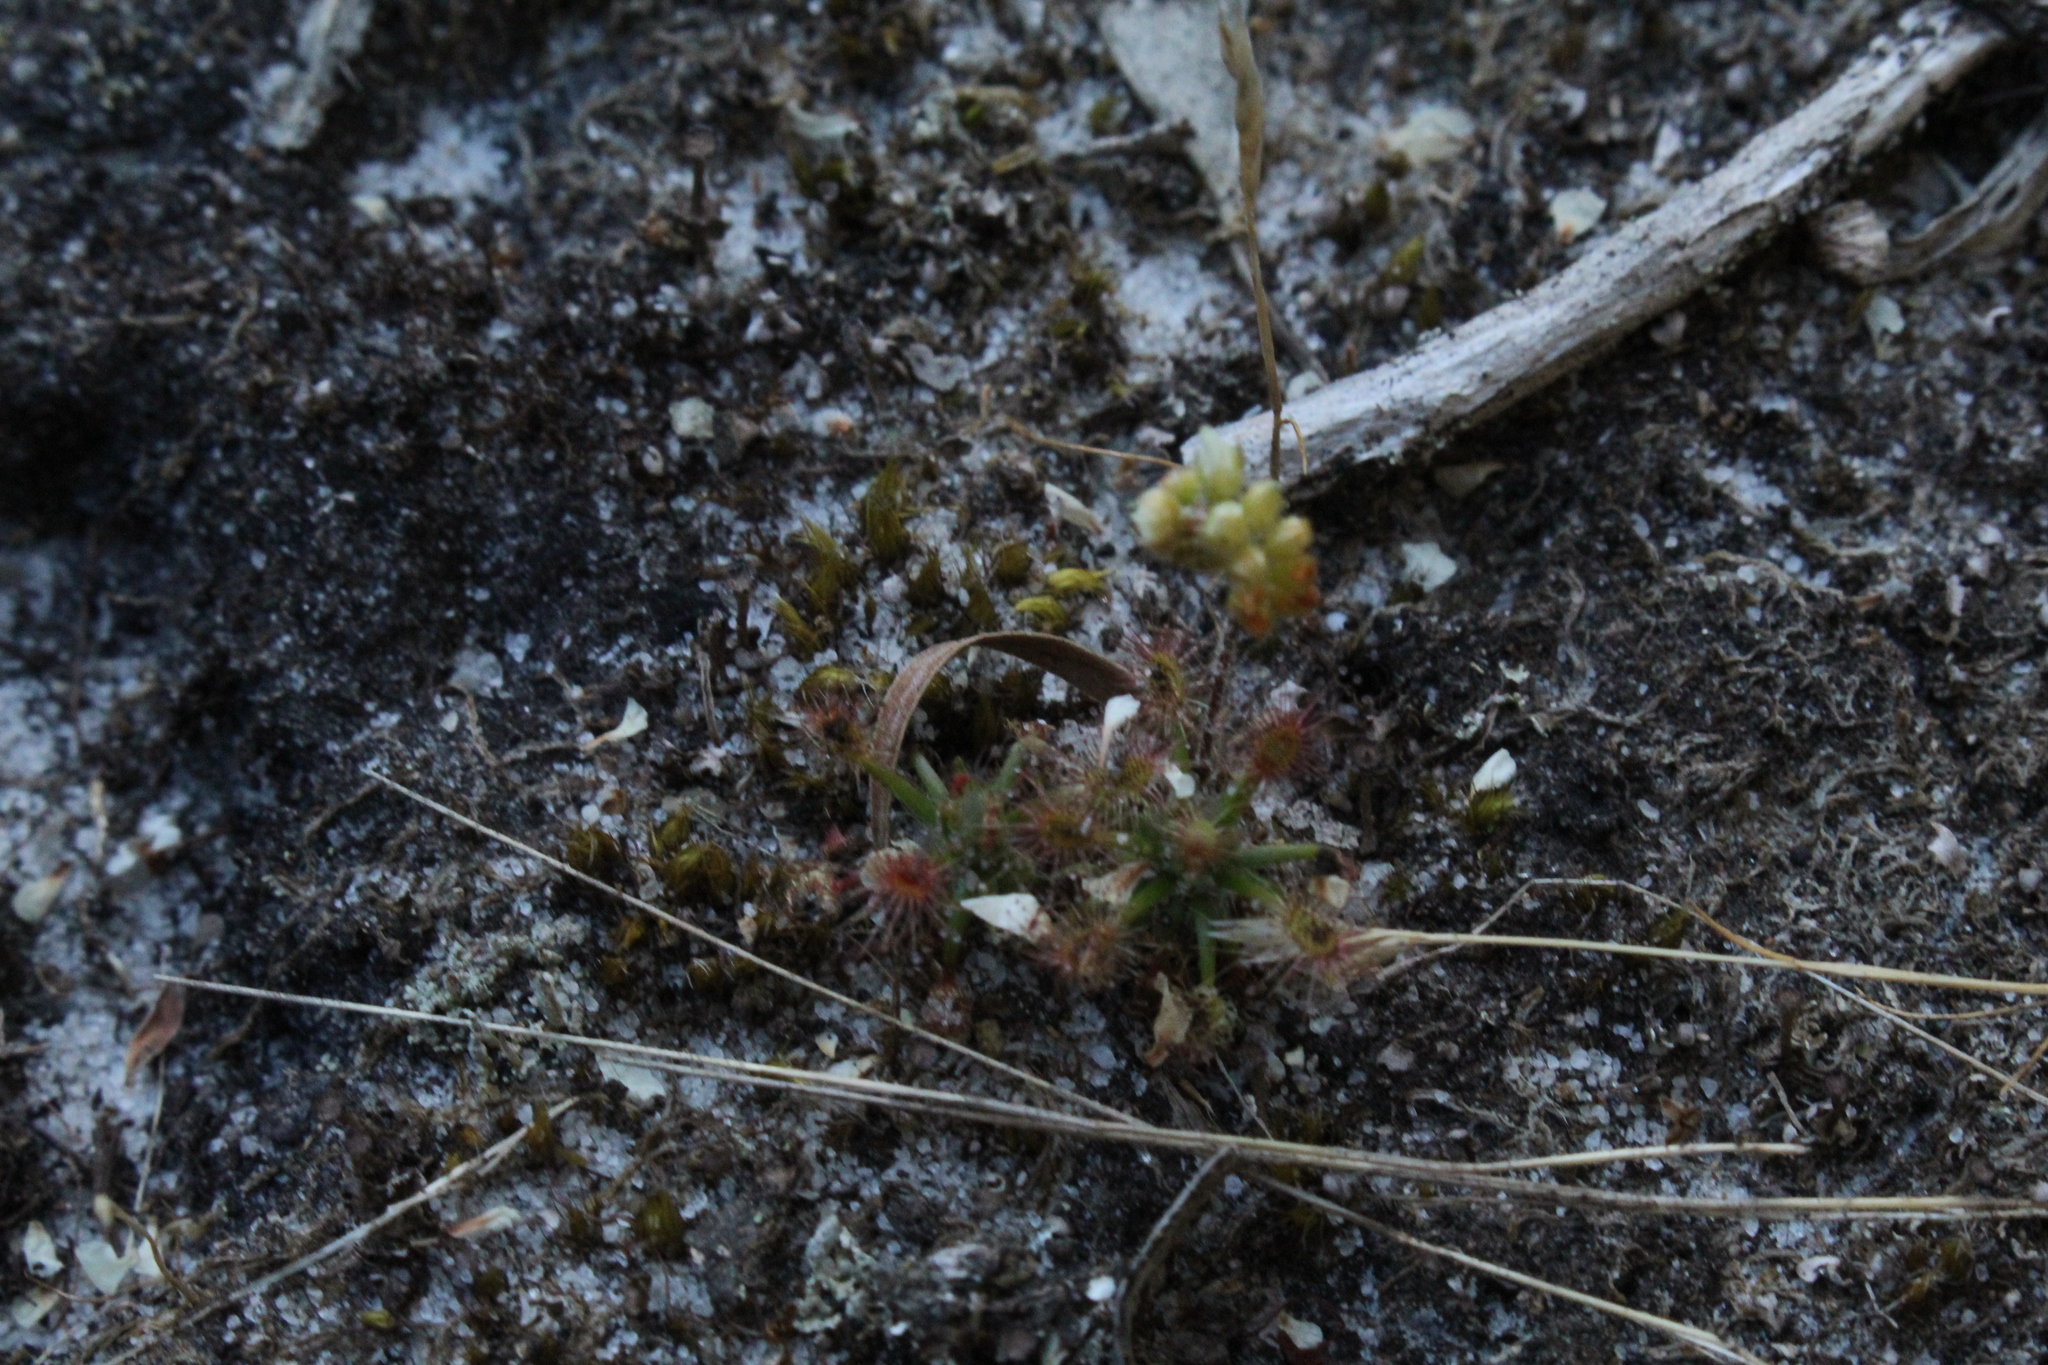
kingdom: Plantae
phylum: Tracheophyta
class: Magnoliopsida
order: Caryophyllales
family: Droseraceae
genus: Drosera
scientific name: Drosera paleacea
